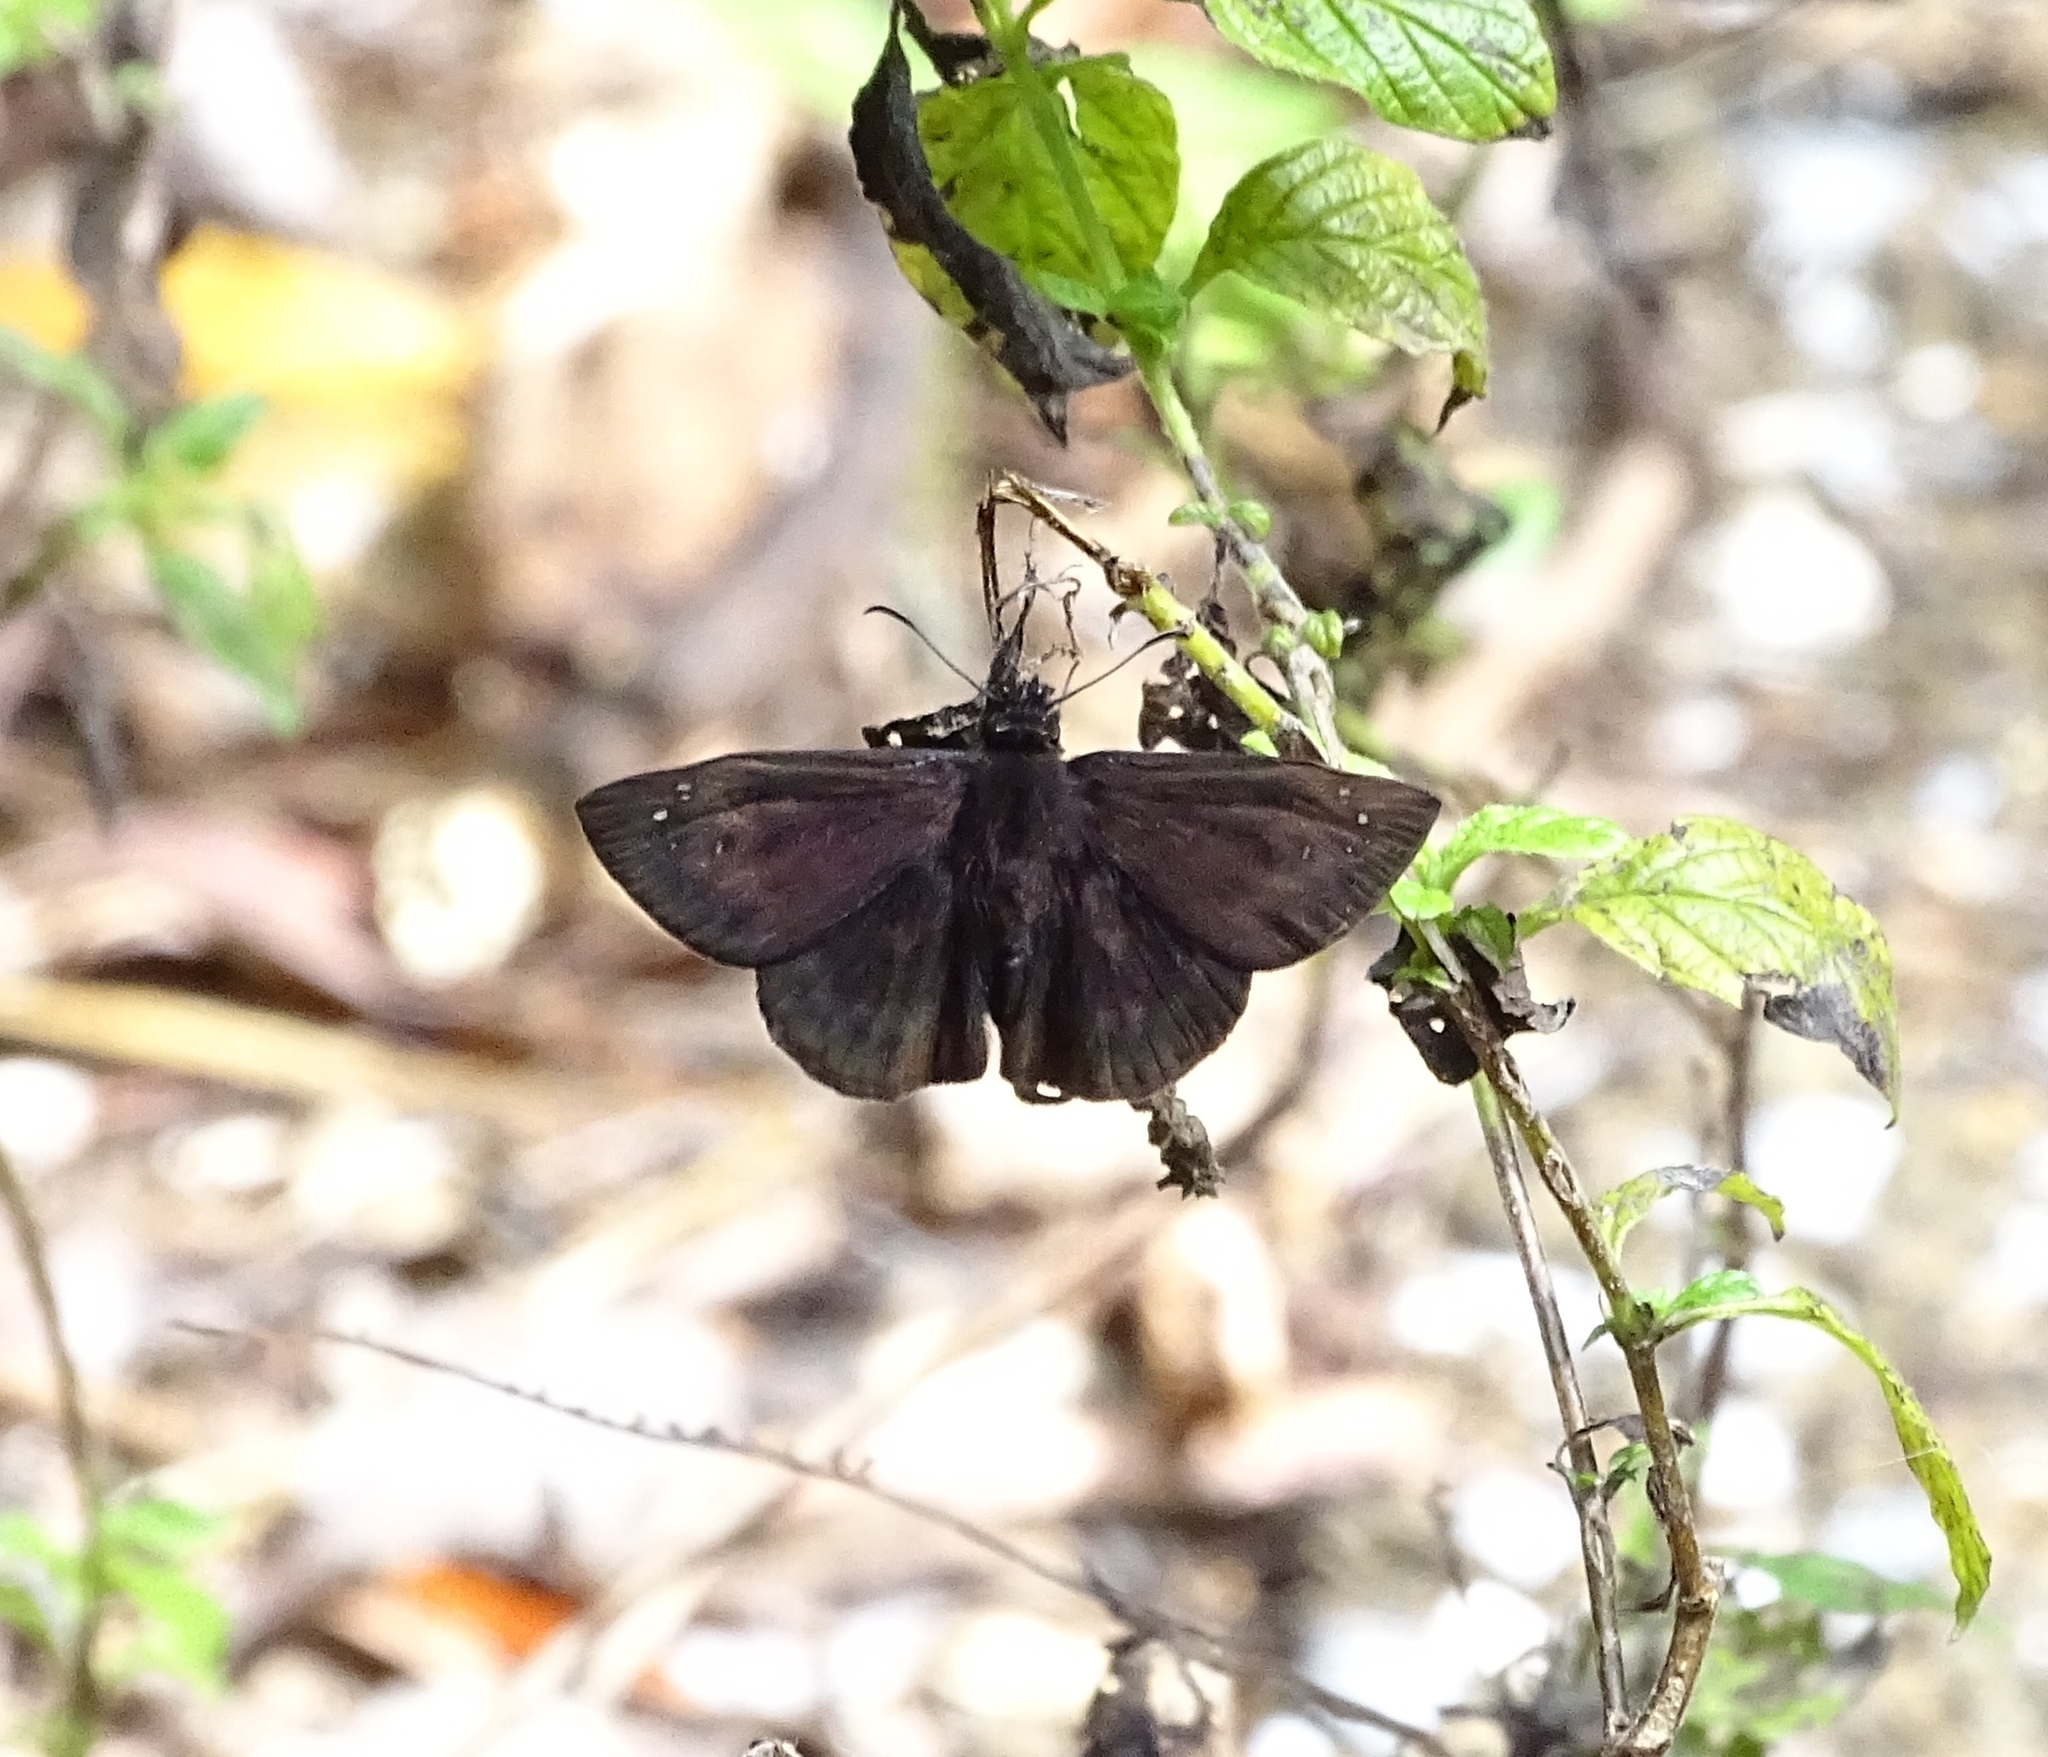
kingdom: Animalia
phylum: Arthropoda
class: Insecta
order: Lepidoptera
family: Hesperiidae
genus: Ephyriades
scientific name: Ephyriades brunnea
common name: Florida duskywing
